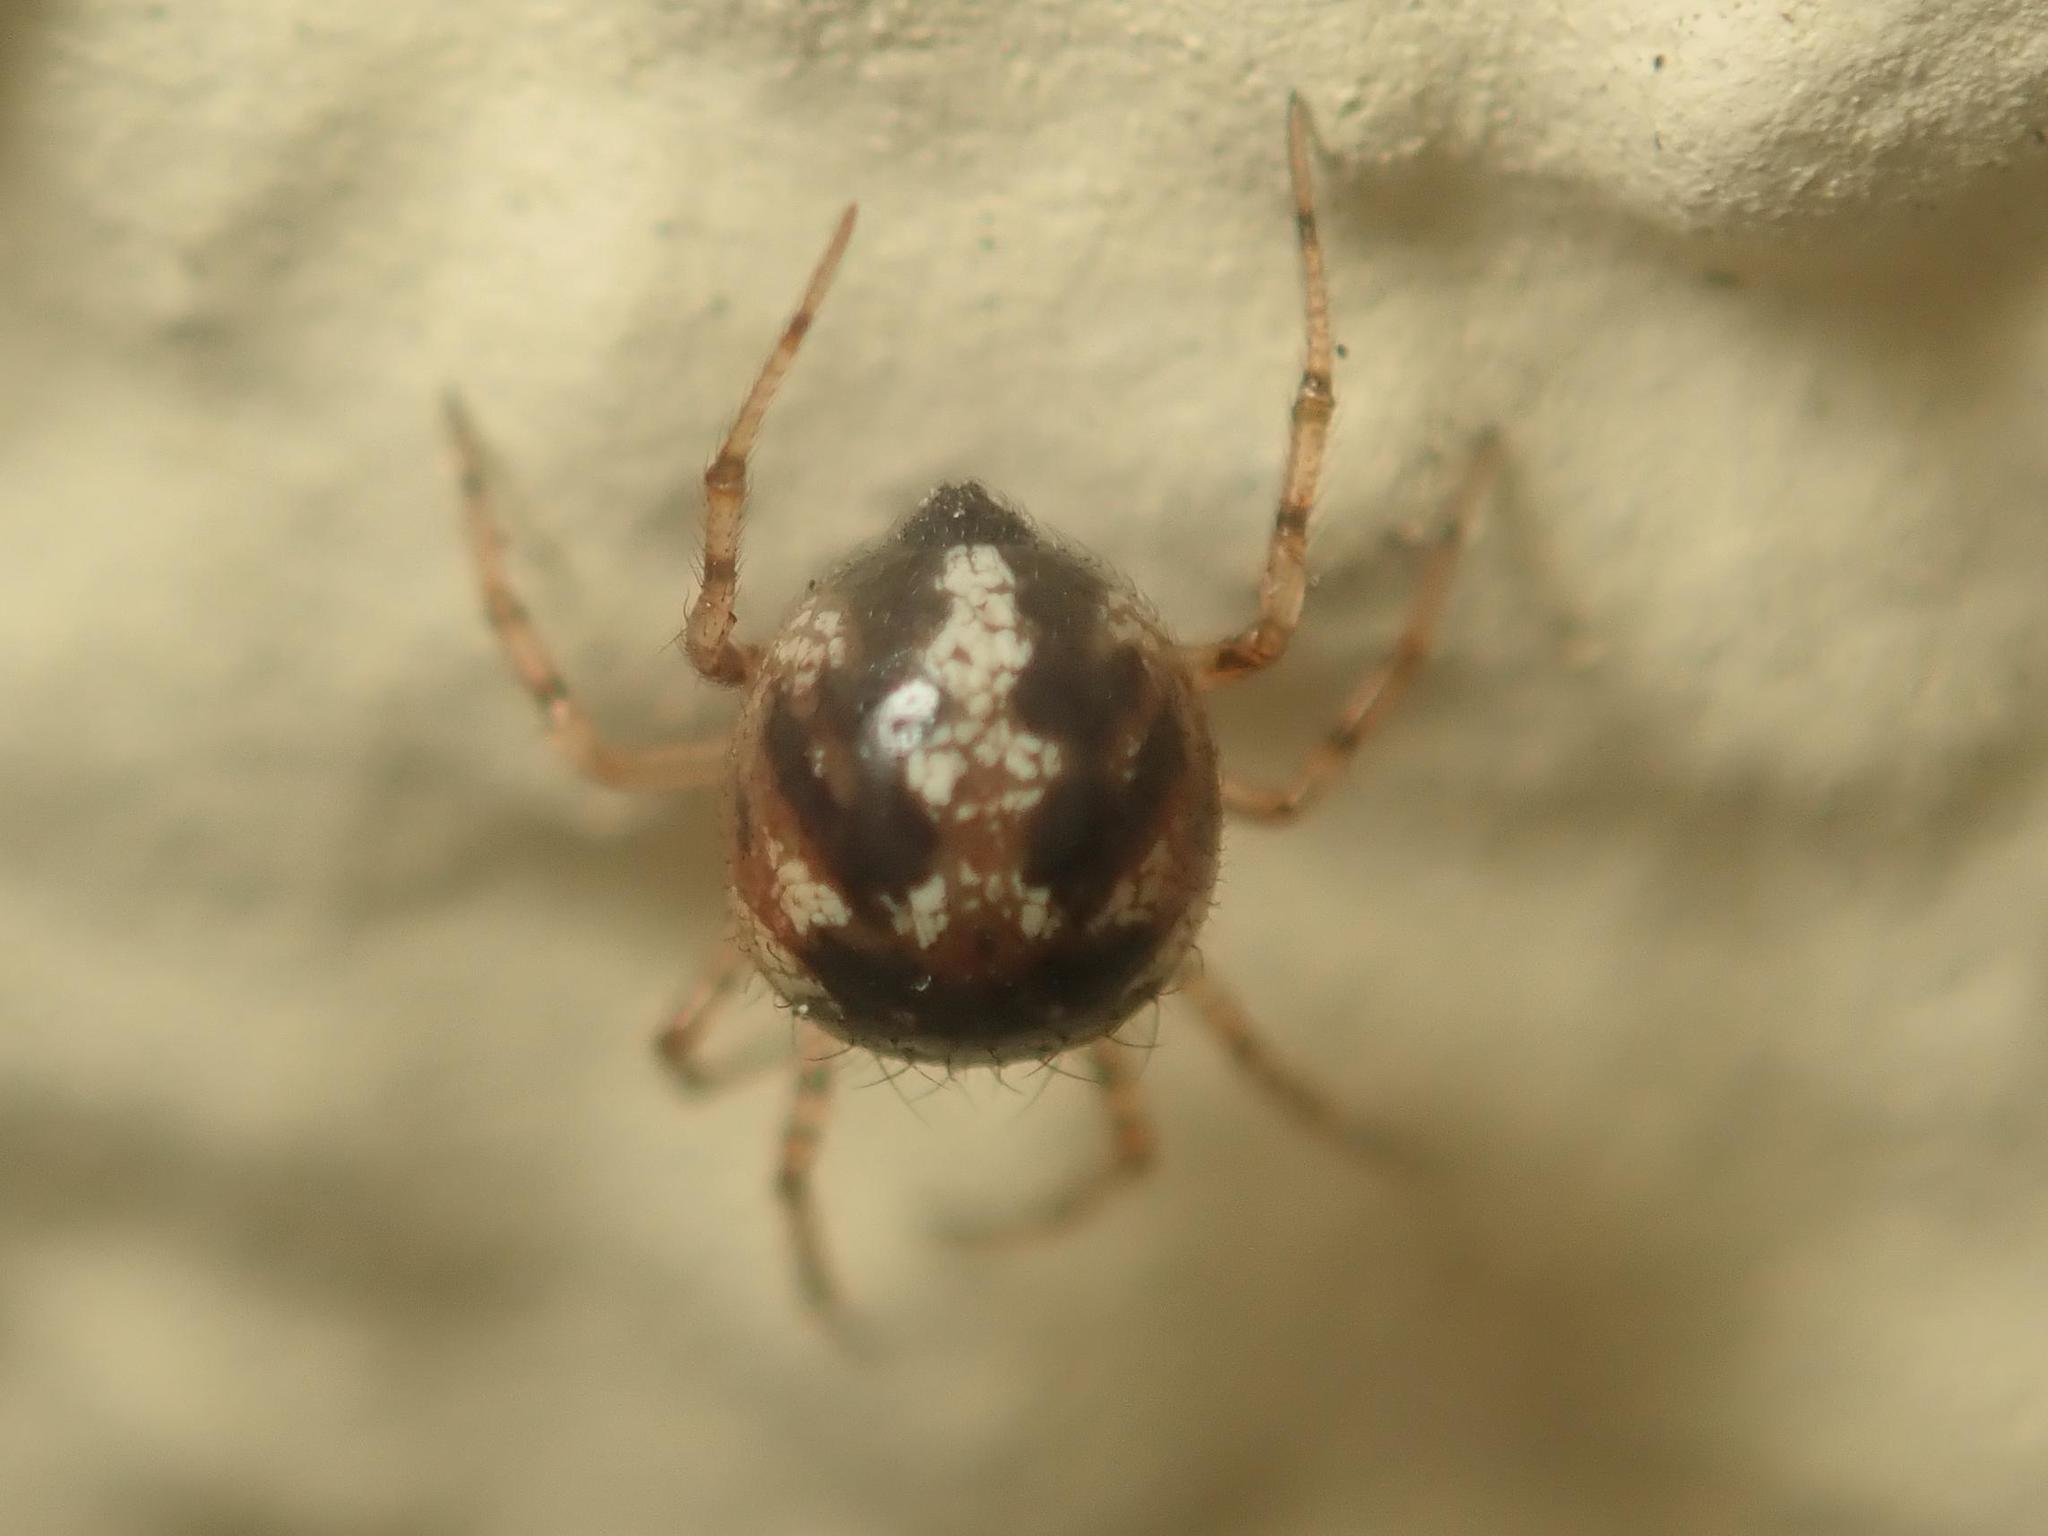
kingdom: Animalia
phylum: Arthropoda
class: Arachnida
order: Araneae
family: Theridiidae
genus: Sardinidion
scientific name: Sardinidion blackwalli
